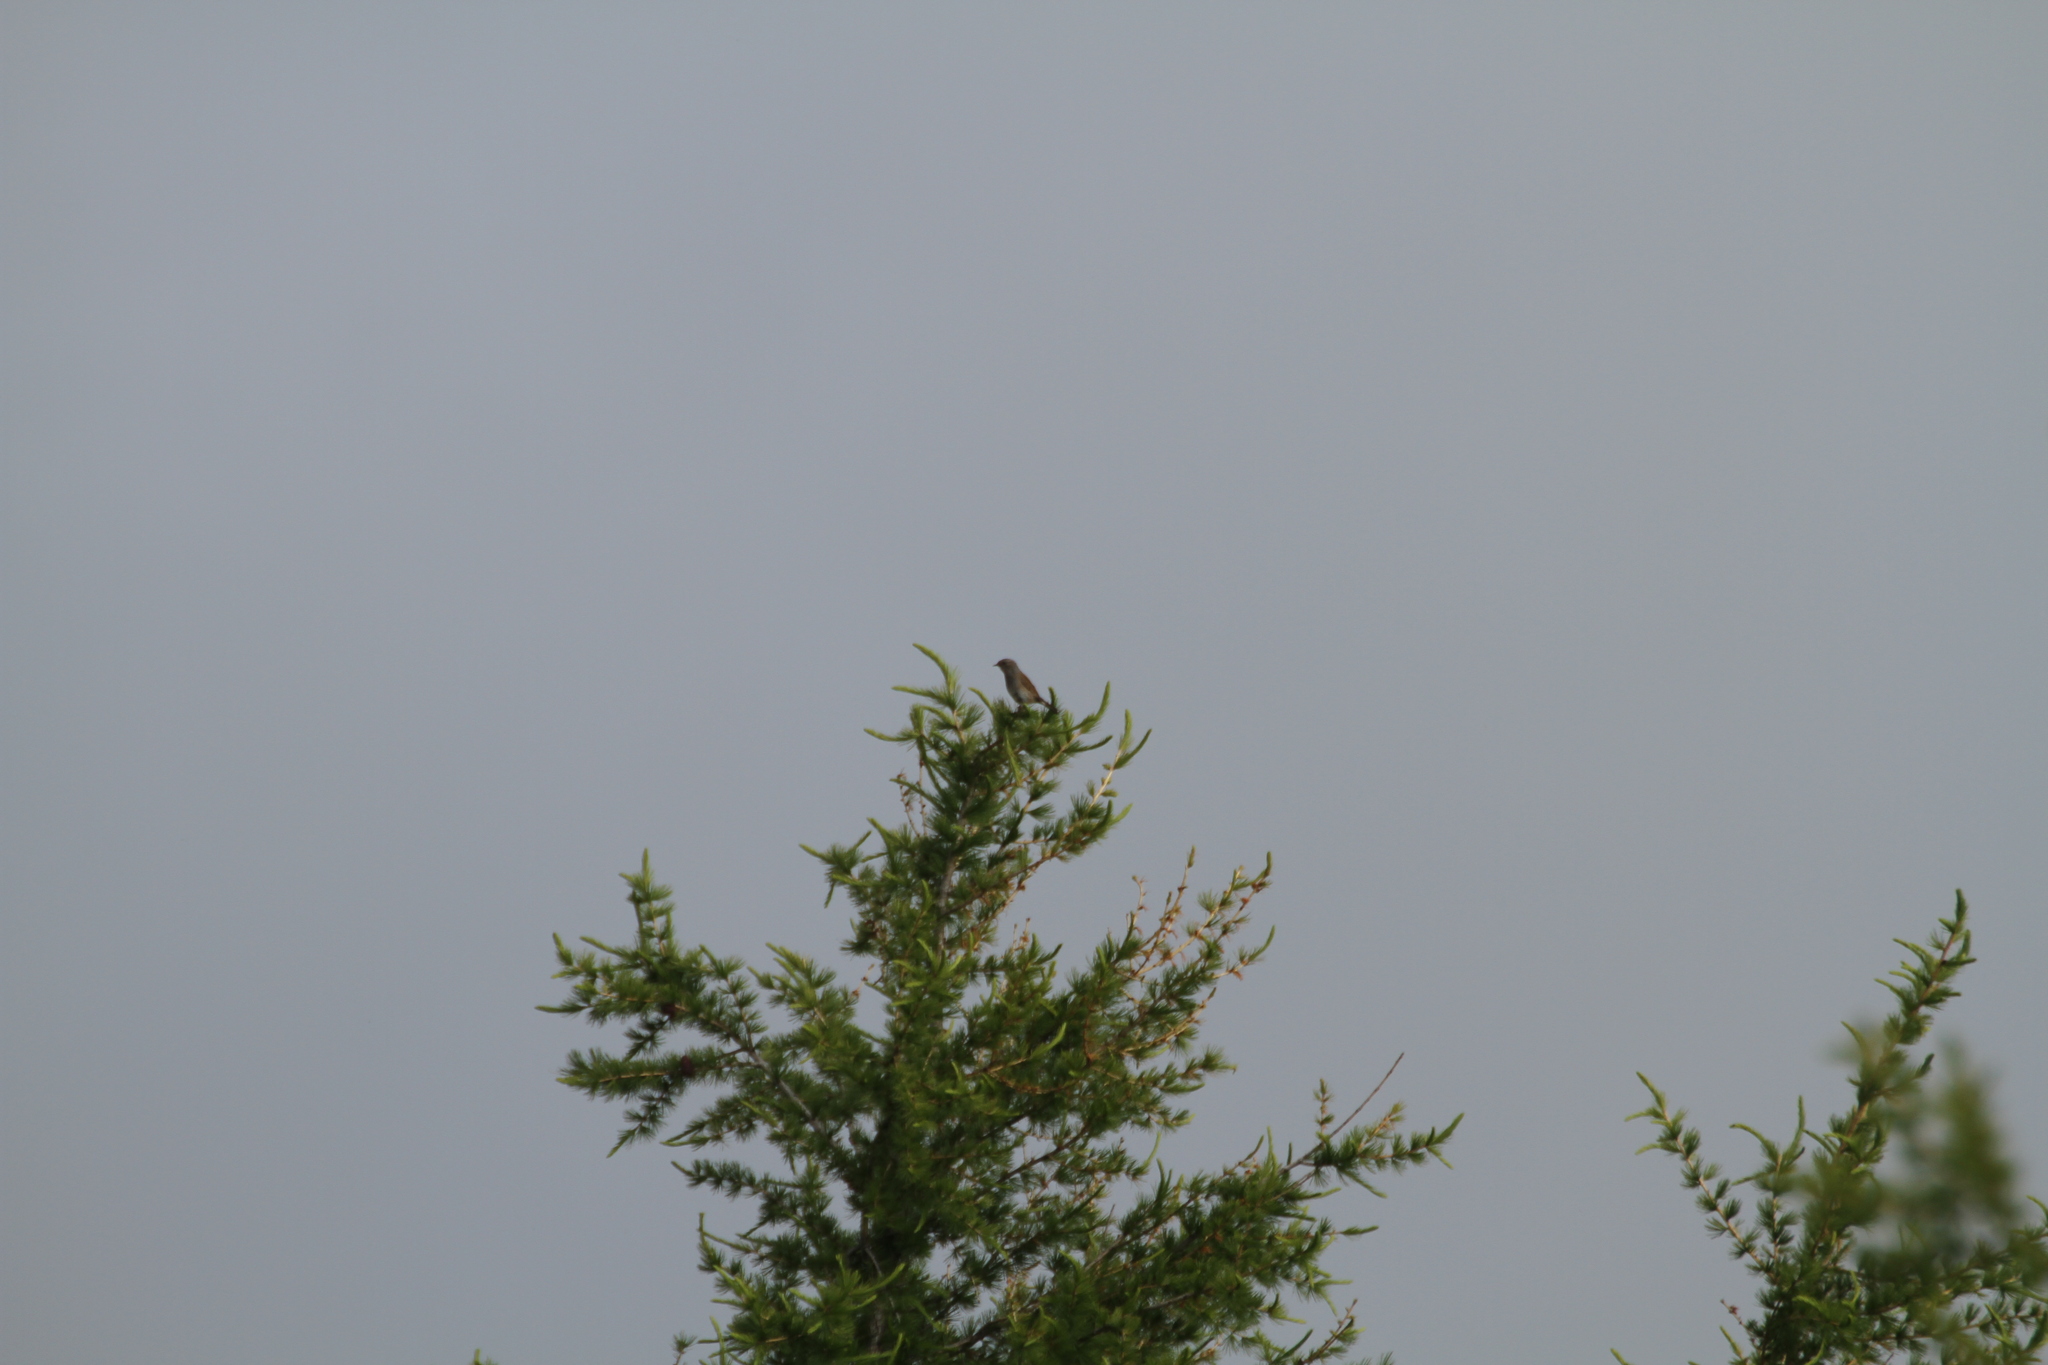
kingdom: Animalia
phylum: Chordata
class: Aves
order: Passeriformes
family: Prunellidae
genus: Prunella
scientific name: Prunella modularis
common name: Dunnock
